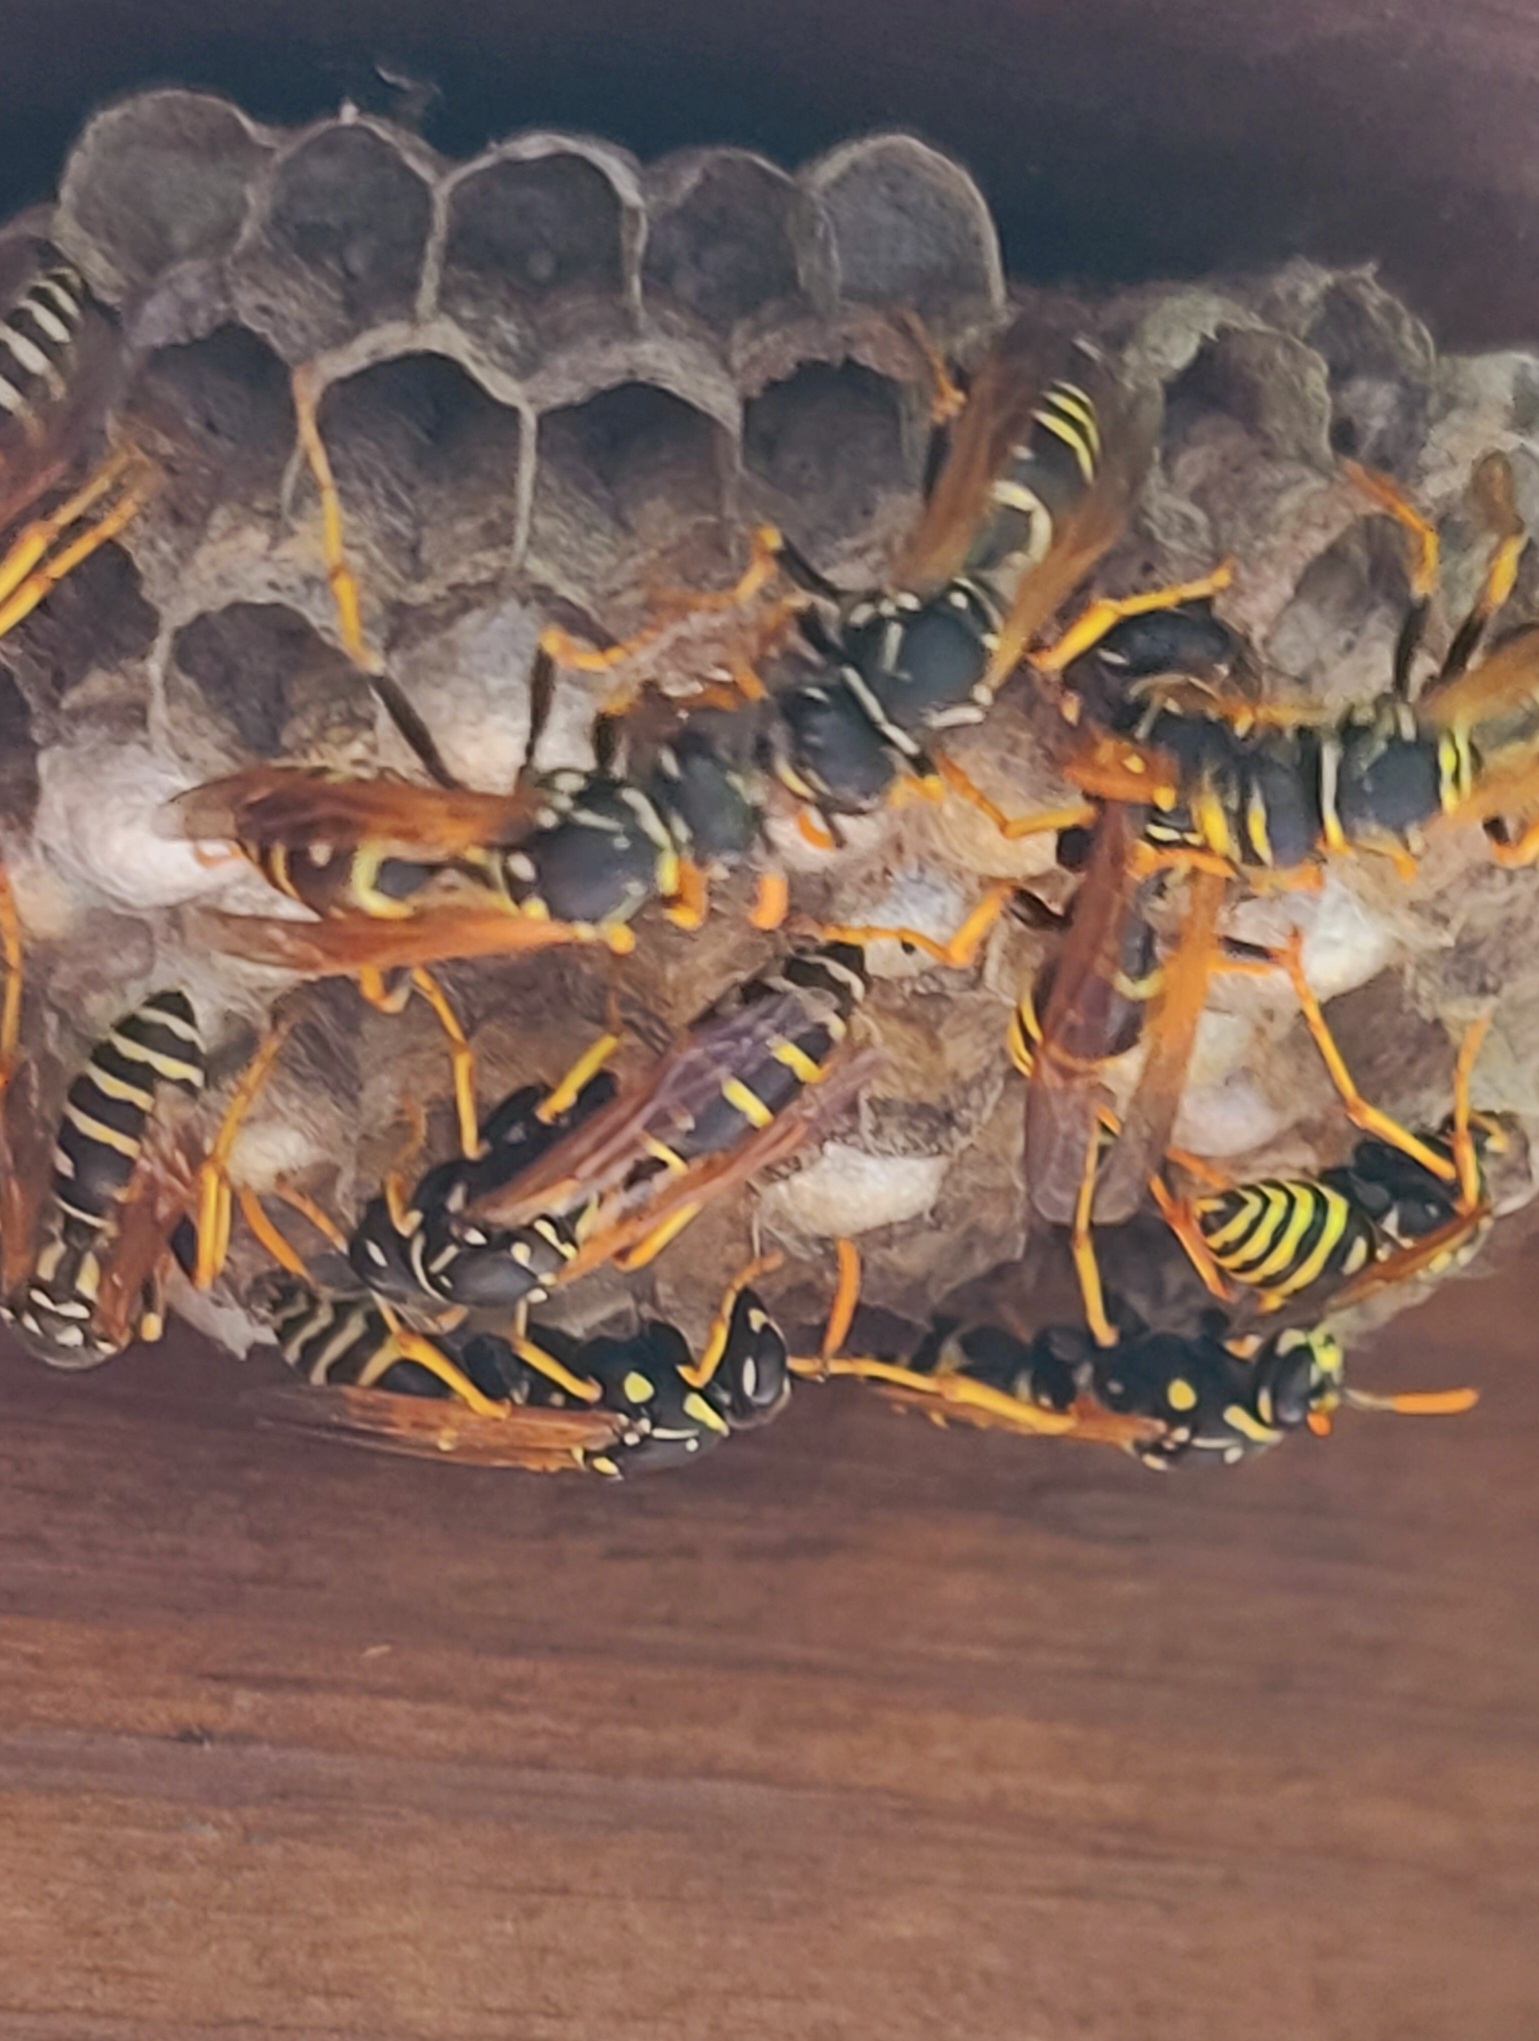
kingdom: Animalia
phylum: Arthropoda
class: Insecta
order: Hymenoptera
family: Eumenidae
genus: Polistes
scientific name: Polistes dominula
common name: Paper wasp
